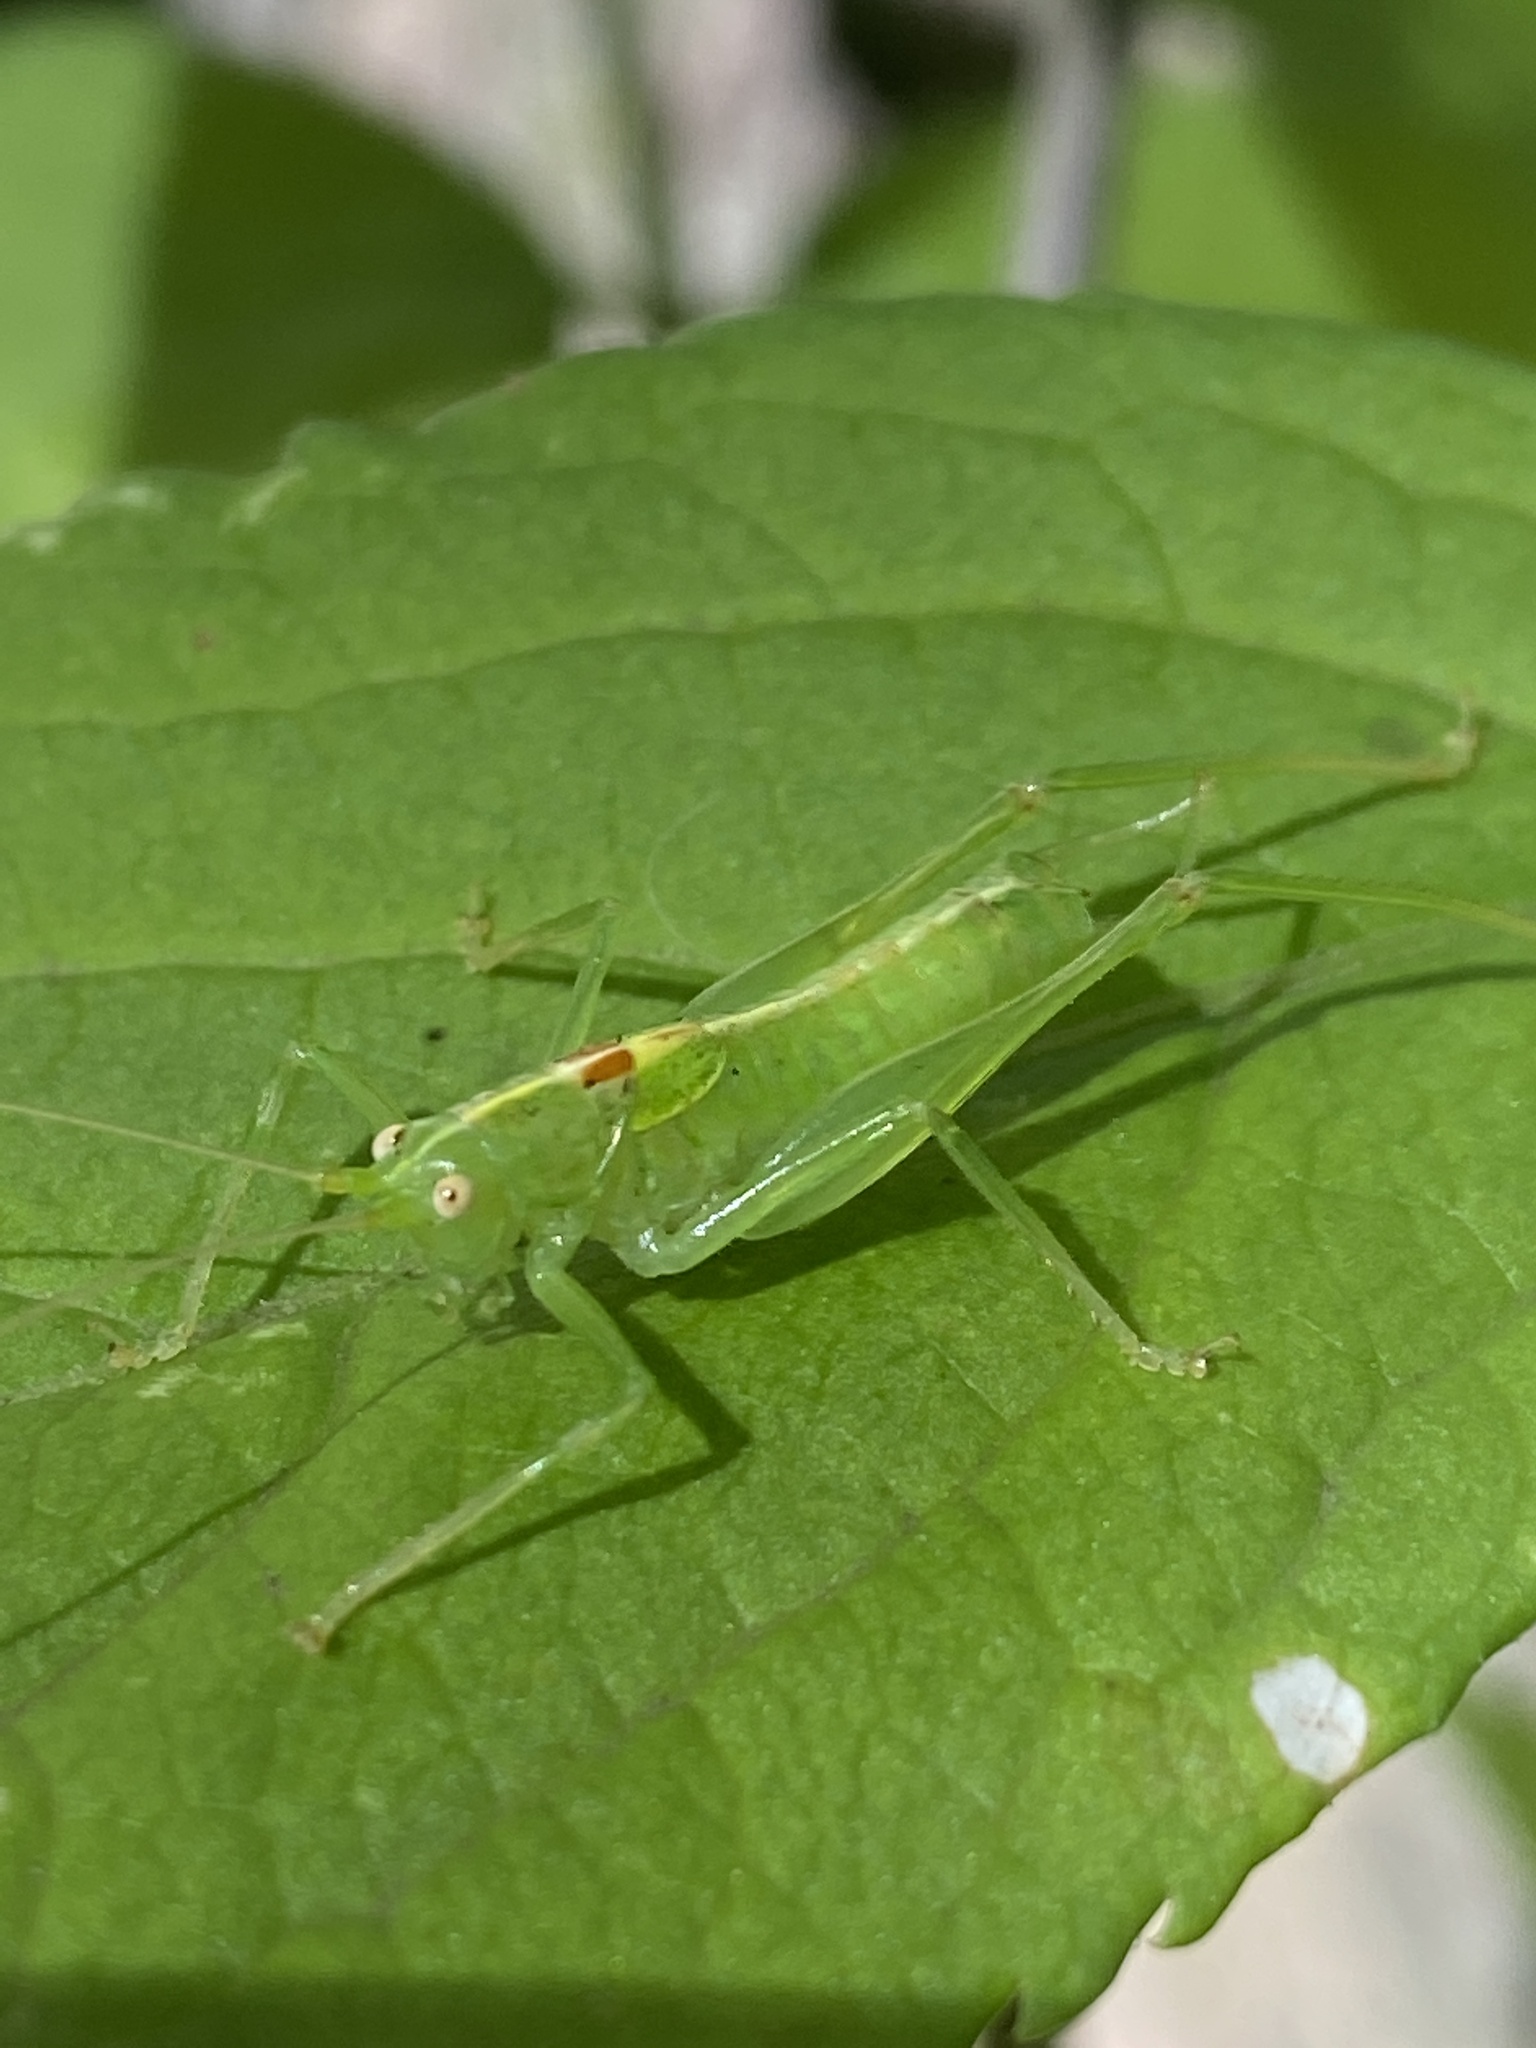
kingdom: Animalia
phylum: Arthropoda
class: Insecta
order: Orthoptera
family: Tettigoniidae
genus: Meconema
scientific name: Meconema meridionale
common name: Southern oak bush-cricket
